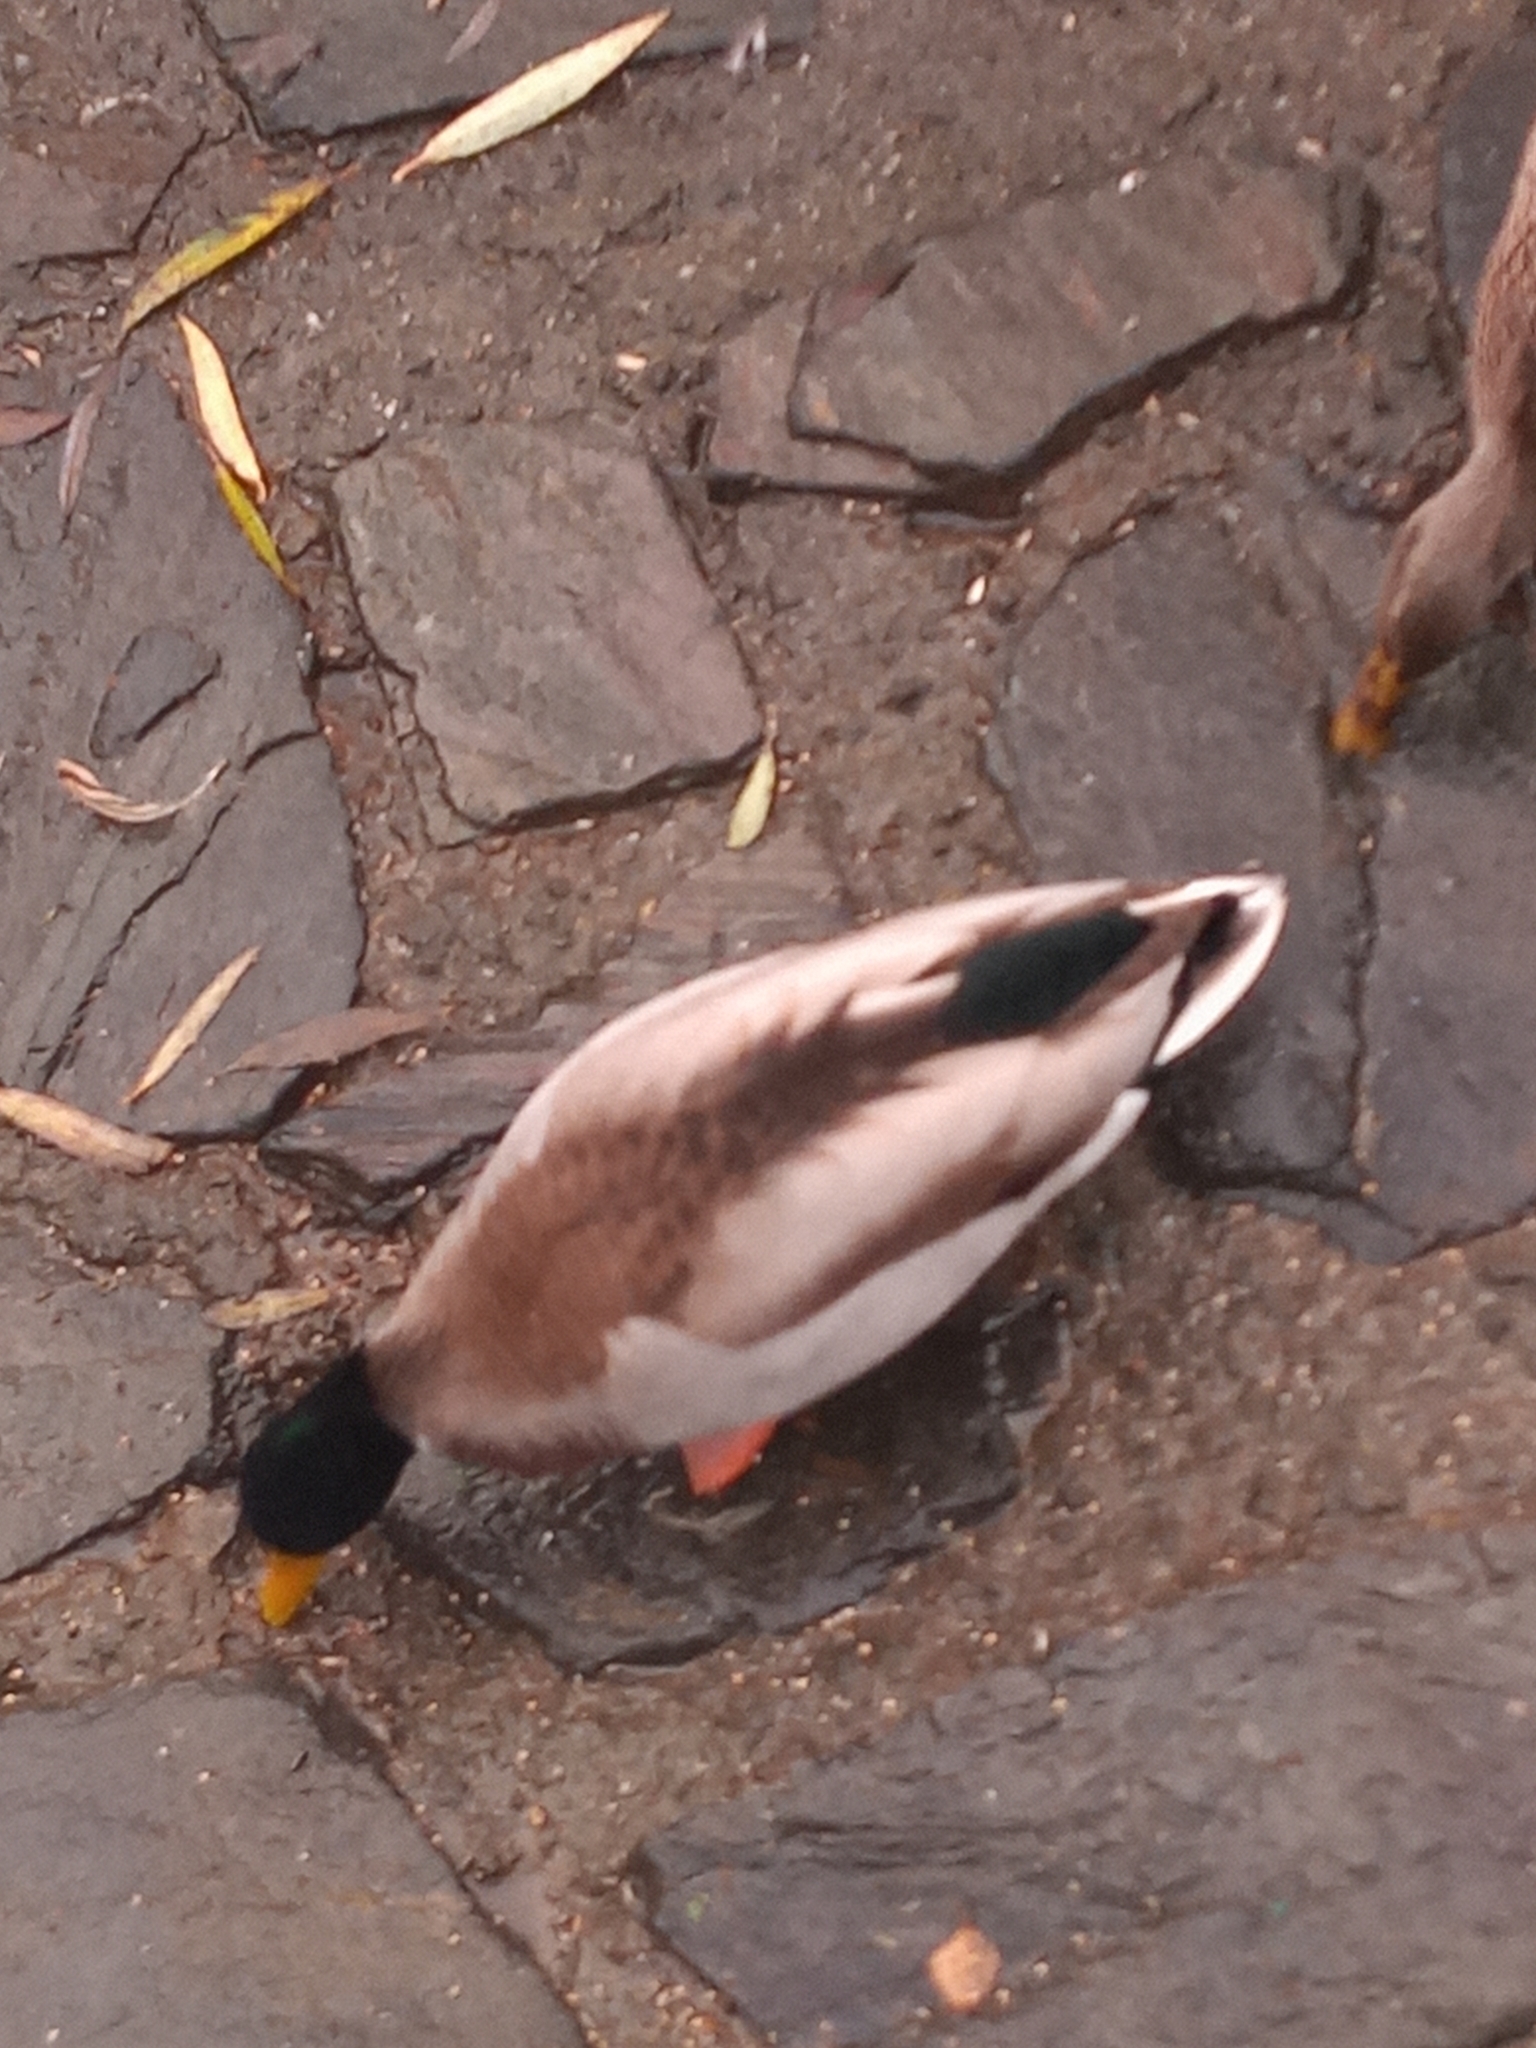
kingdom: Animalia
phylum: Chordata
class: Aves
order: Anseriformes
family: Anatidae
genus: Anas
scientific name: Anas platyrhynchos
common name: Mallard
